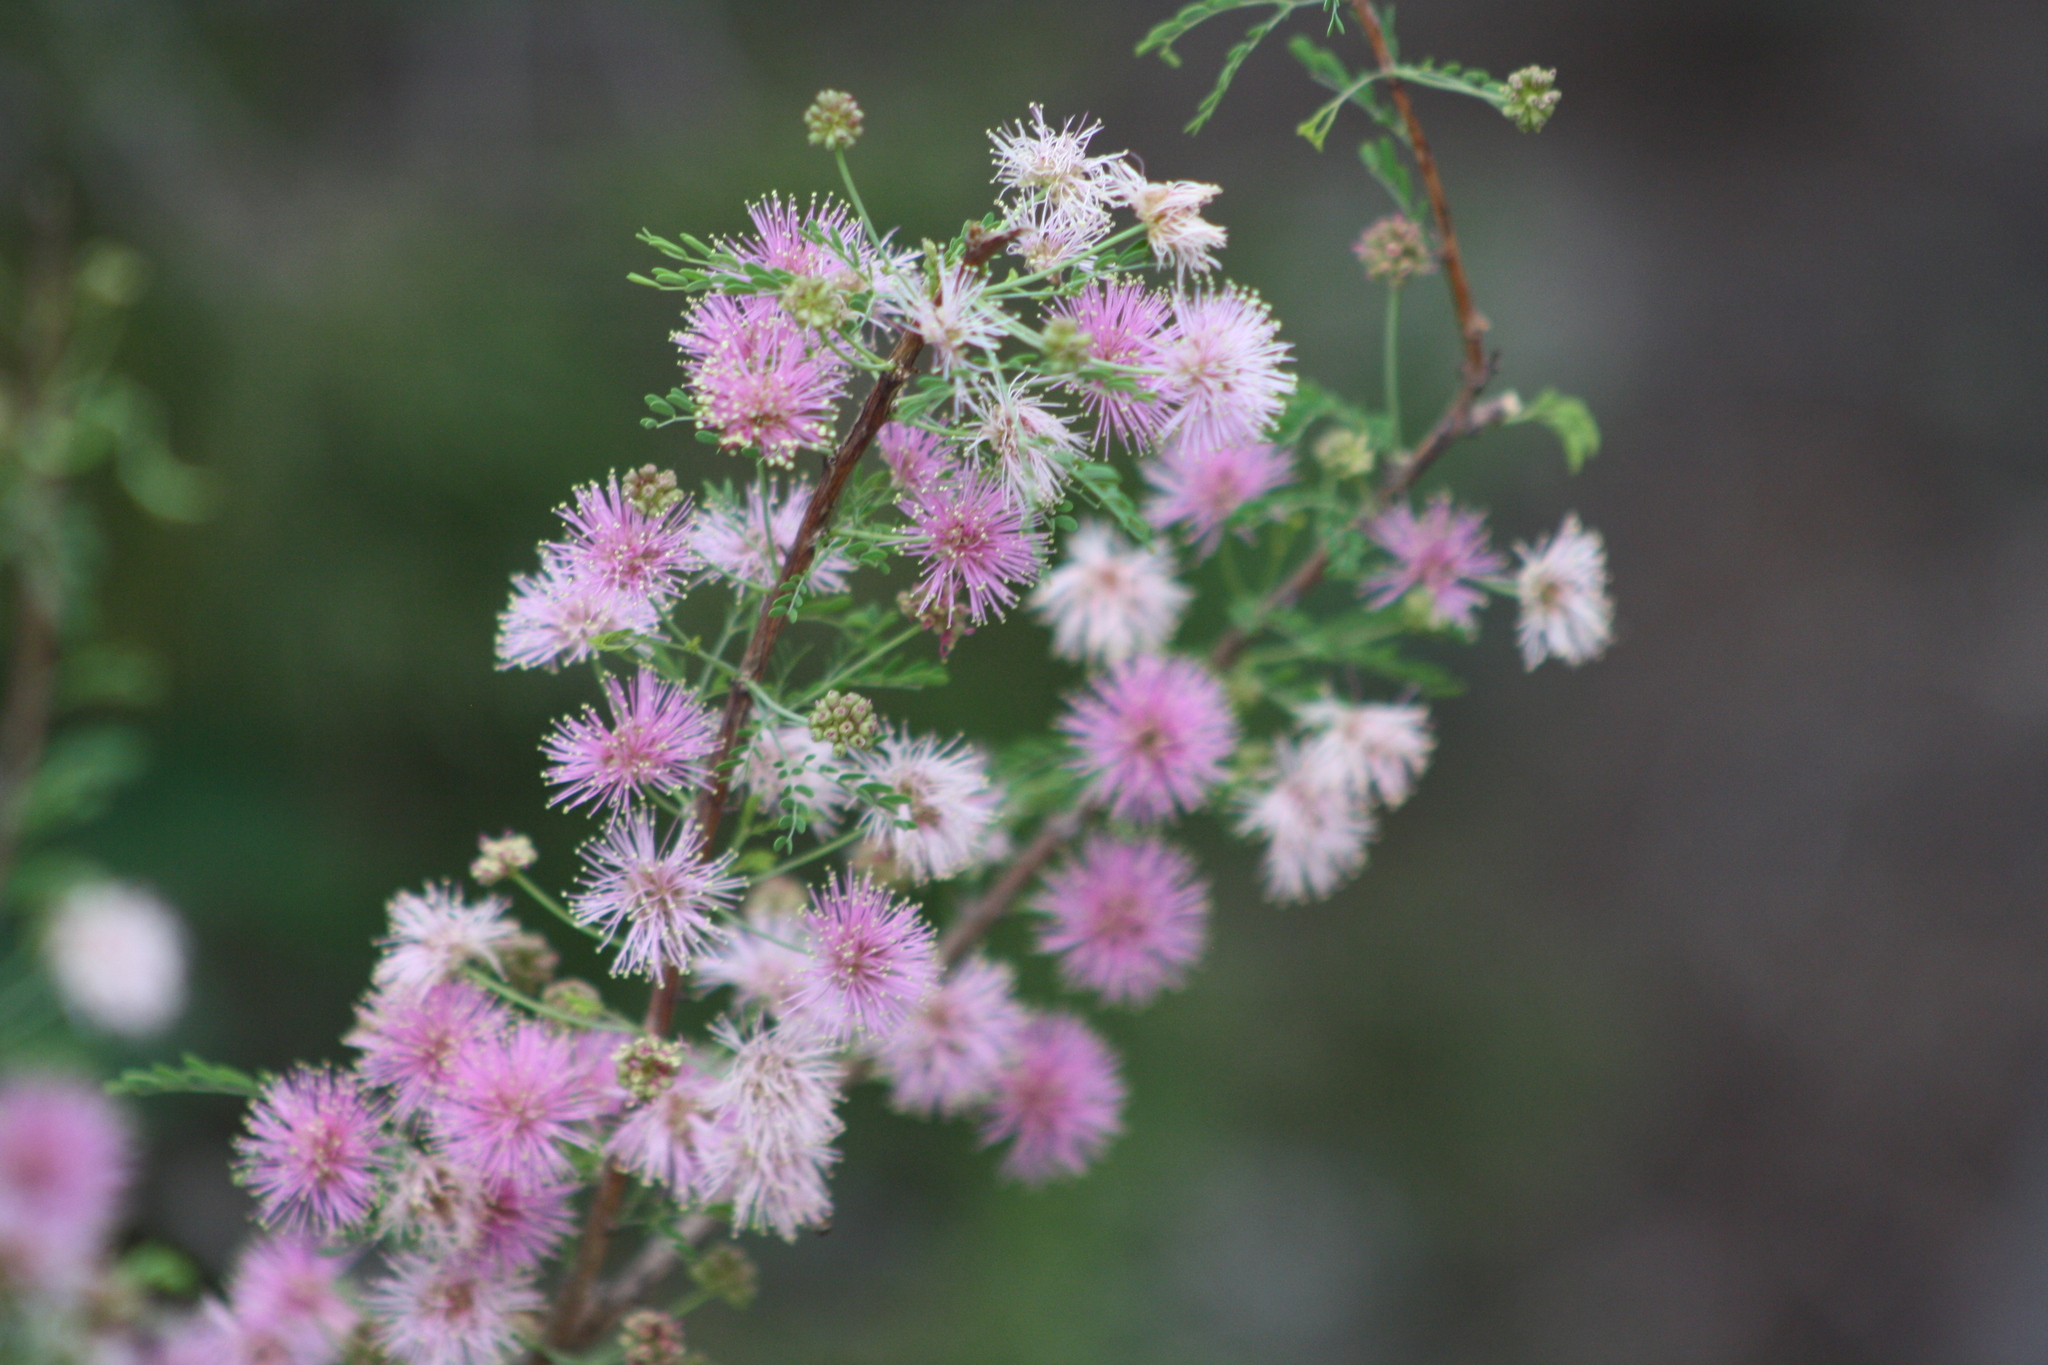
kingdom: Plantae
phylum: Tracheophyta
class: Magnoliopsida
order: Fabales
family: Fabaceae
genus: Mimosa
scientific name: Mimosa borealis
